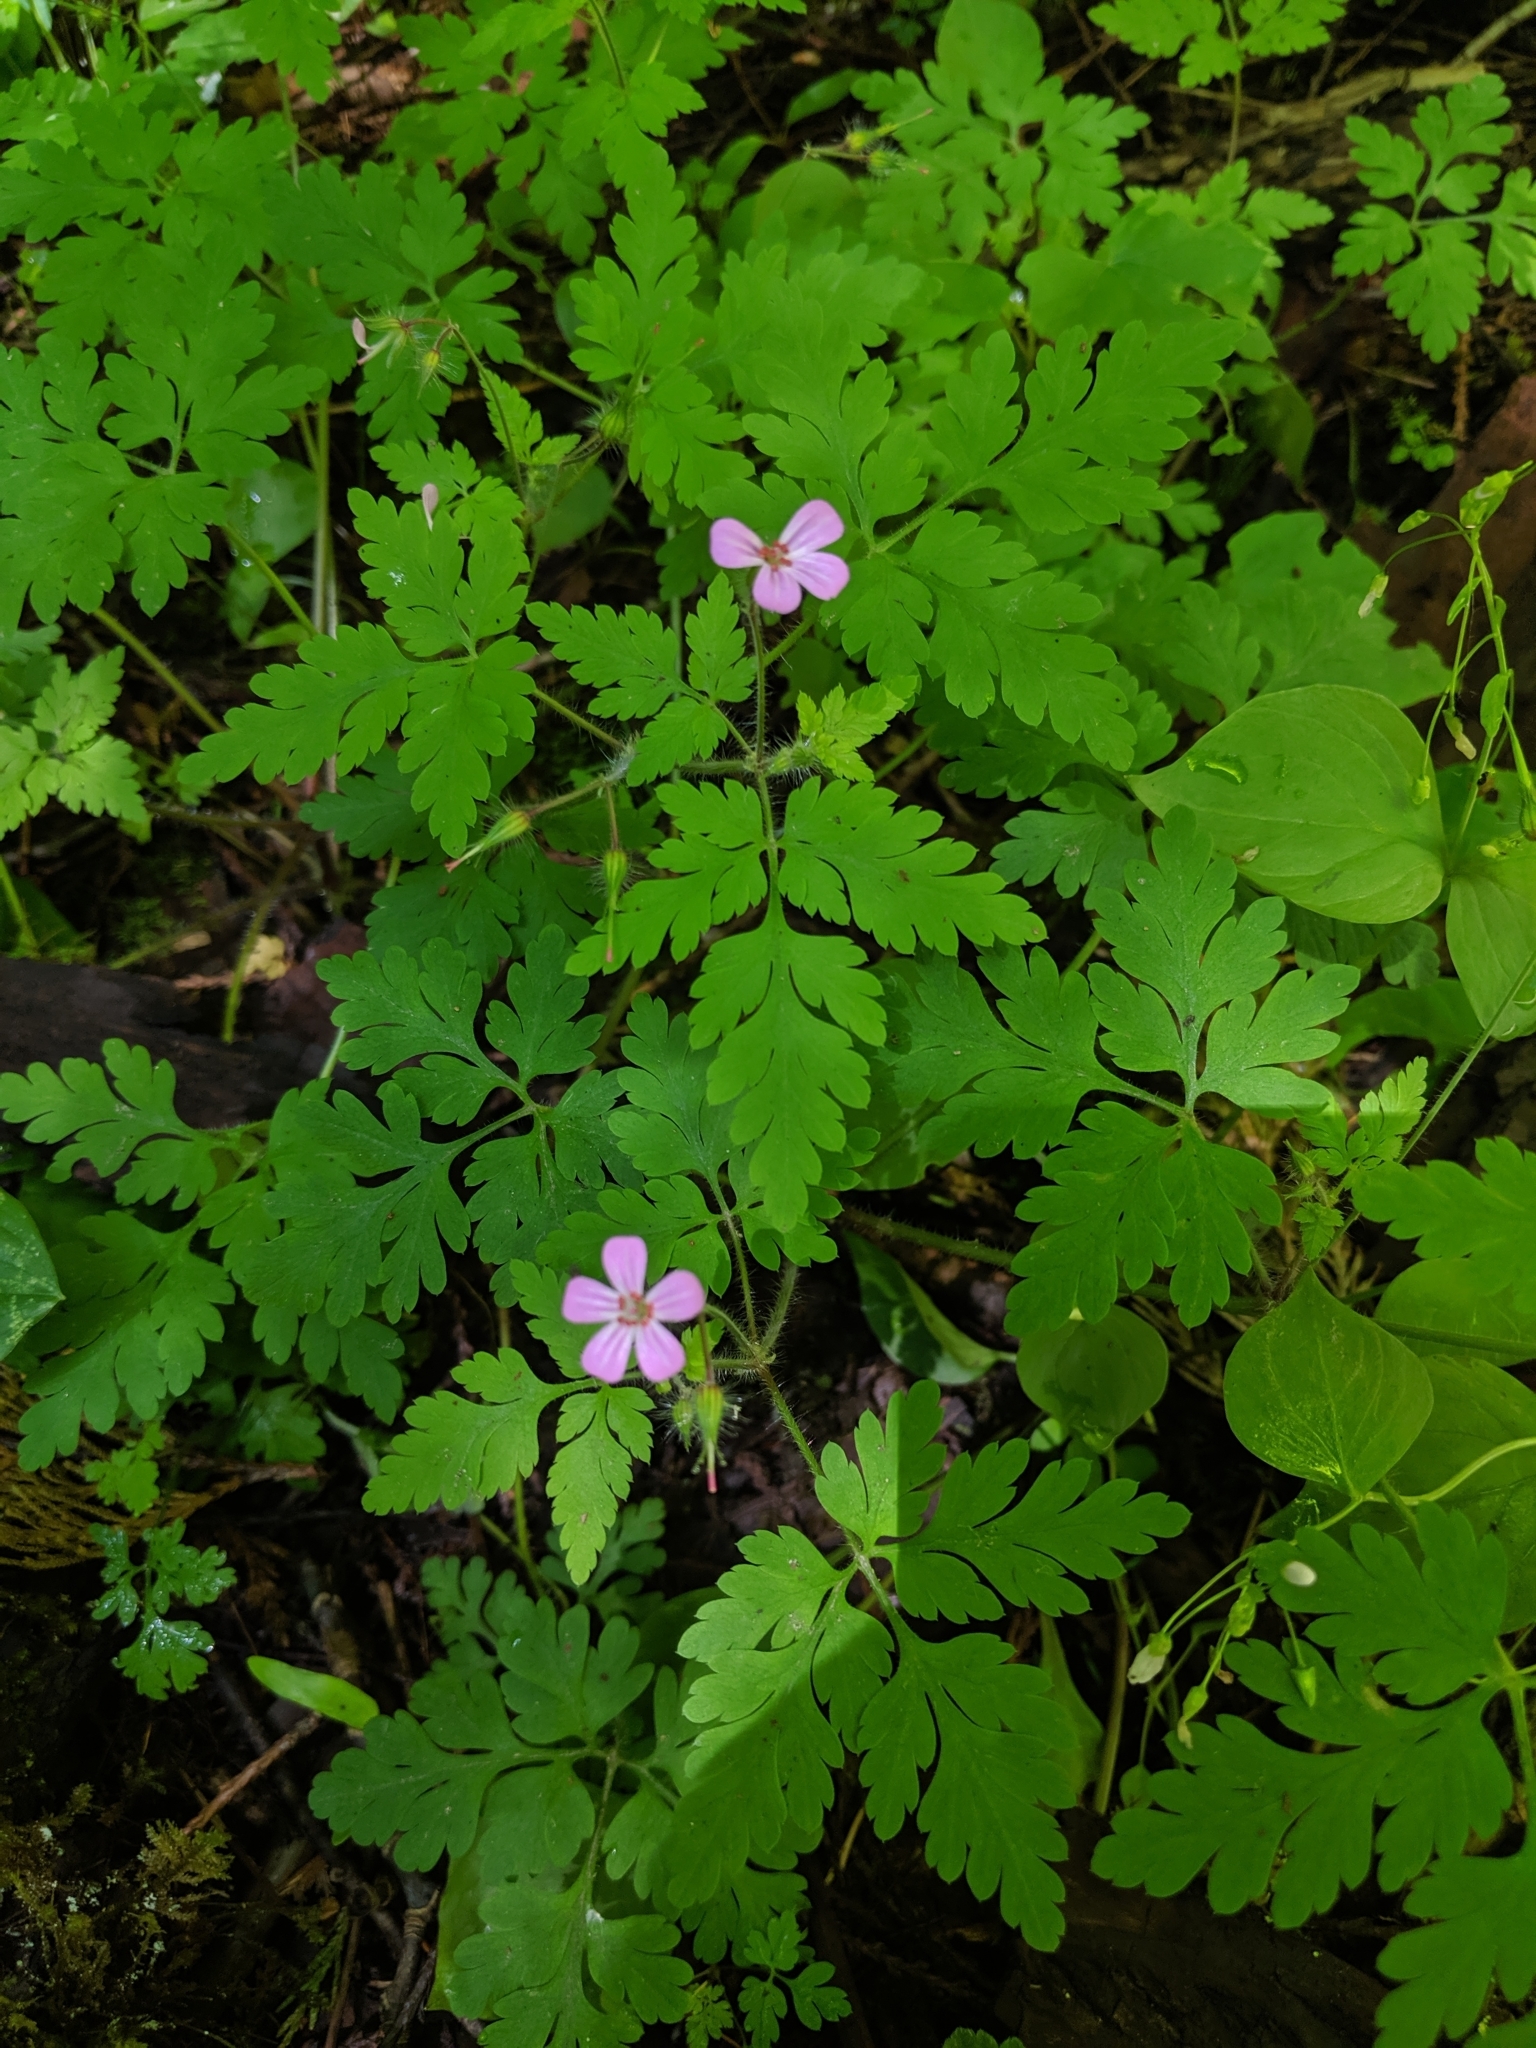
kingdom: Plantae
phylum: Tracheophyta
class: Magnoliopsida
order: Geraniales
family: Geraniaceae
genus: Geranium
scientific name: Geranium robertianum
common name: Herb-robert
